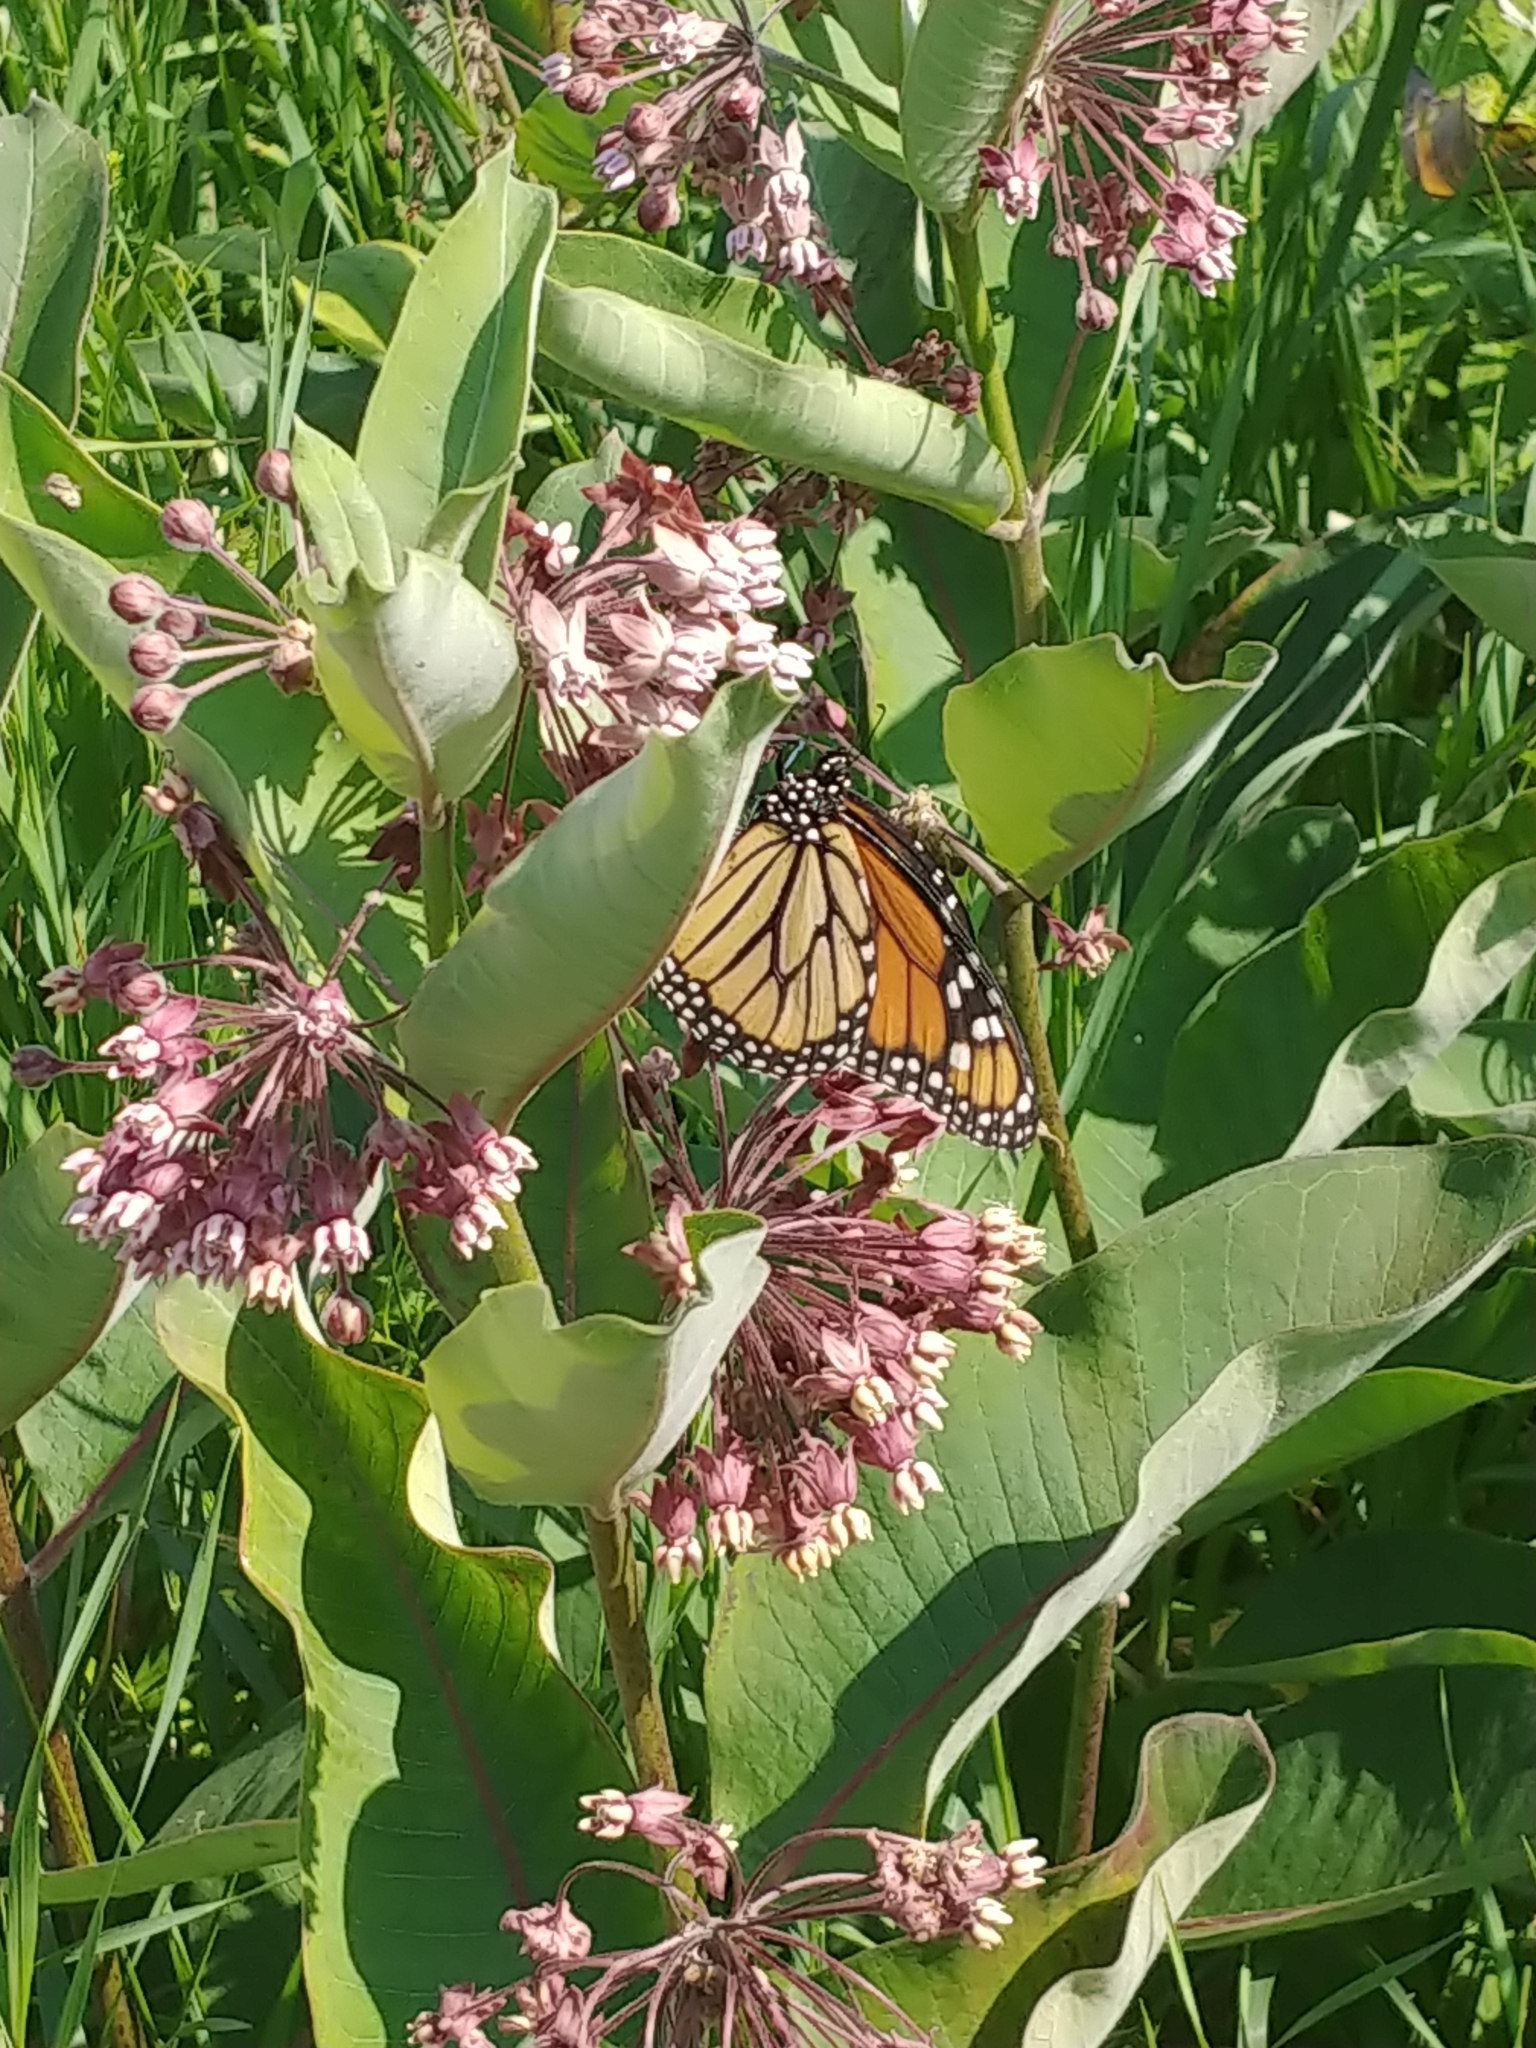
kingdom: Animalia
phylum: Arthropoda
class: Insecta
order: Lepidoptera
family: Nymphalidae
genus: Danaus
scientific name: Danaus plexippus
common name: Monarch
